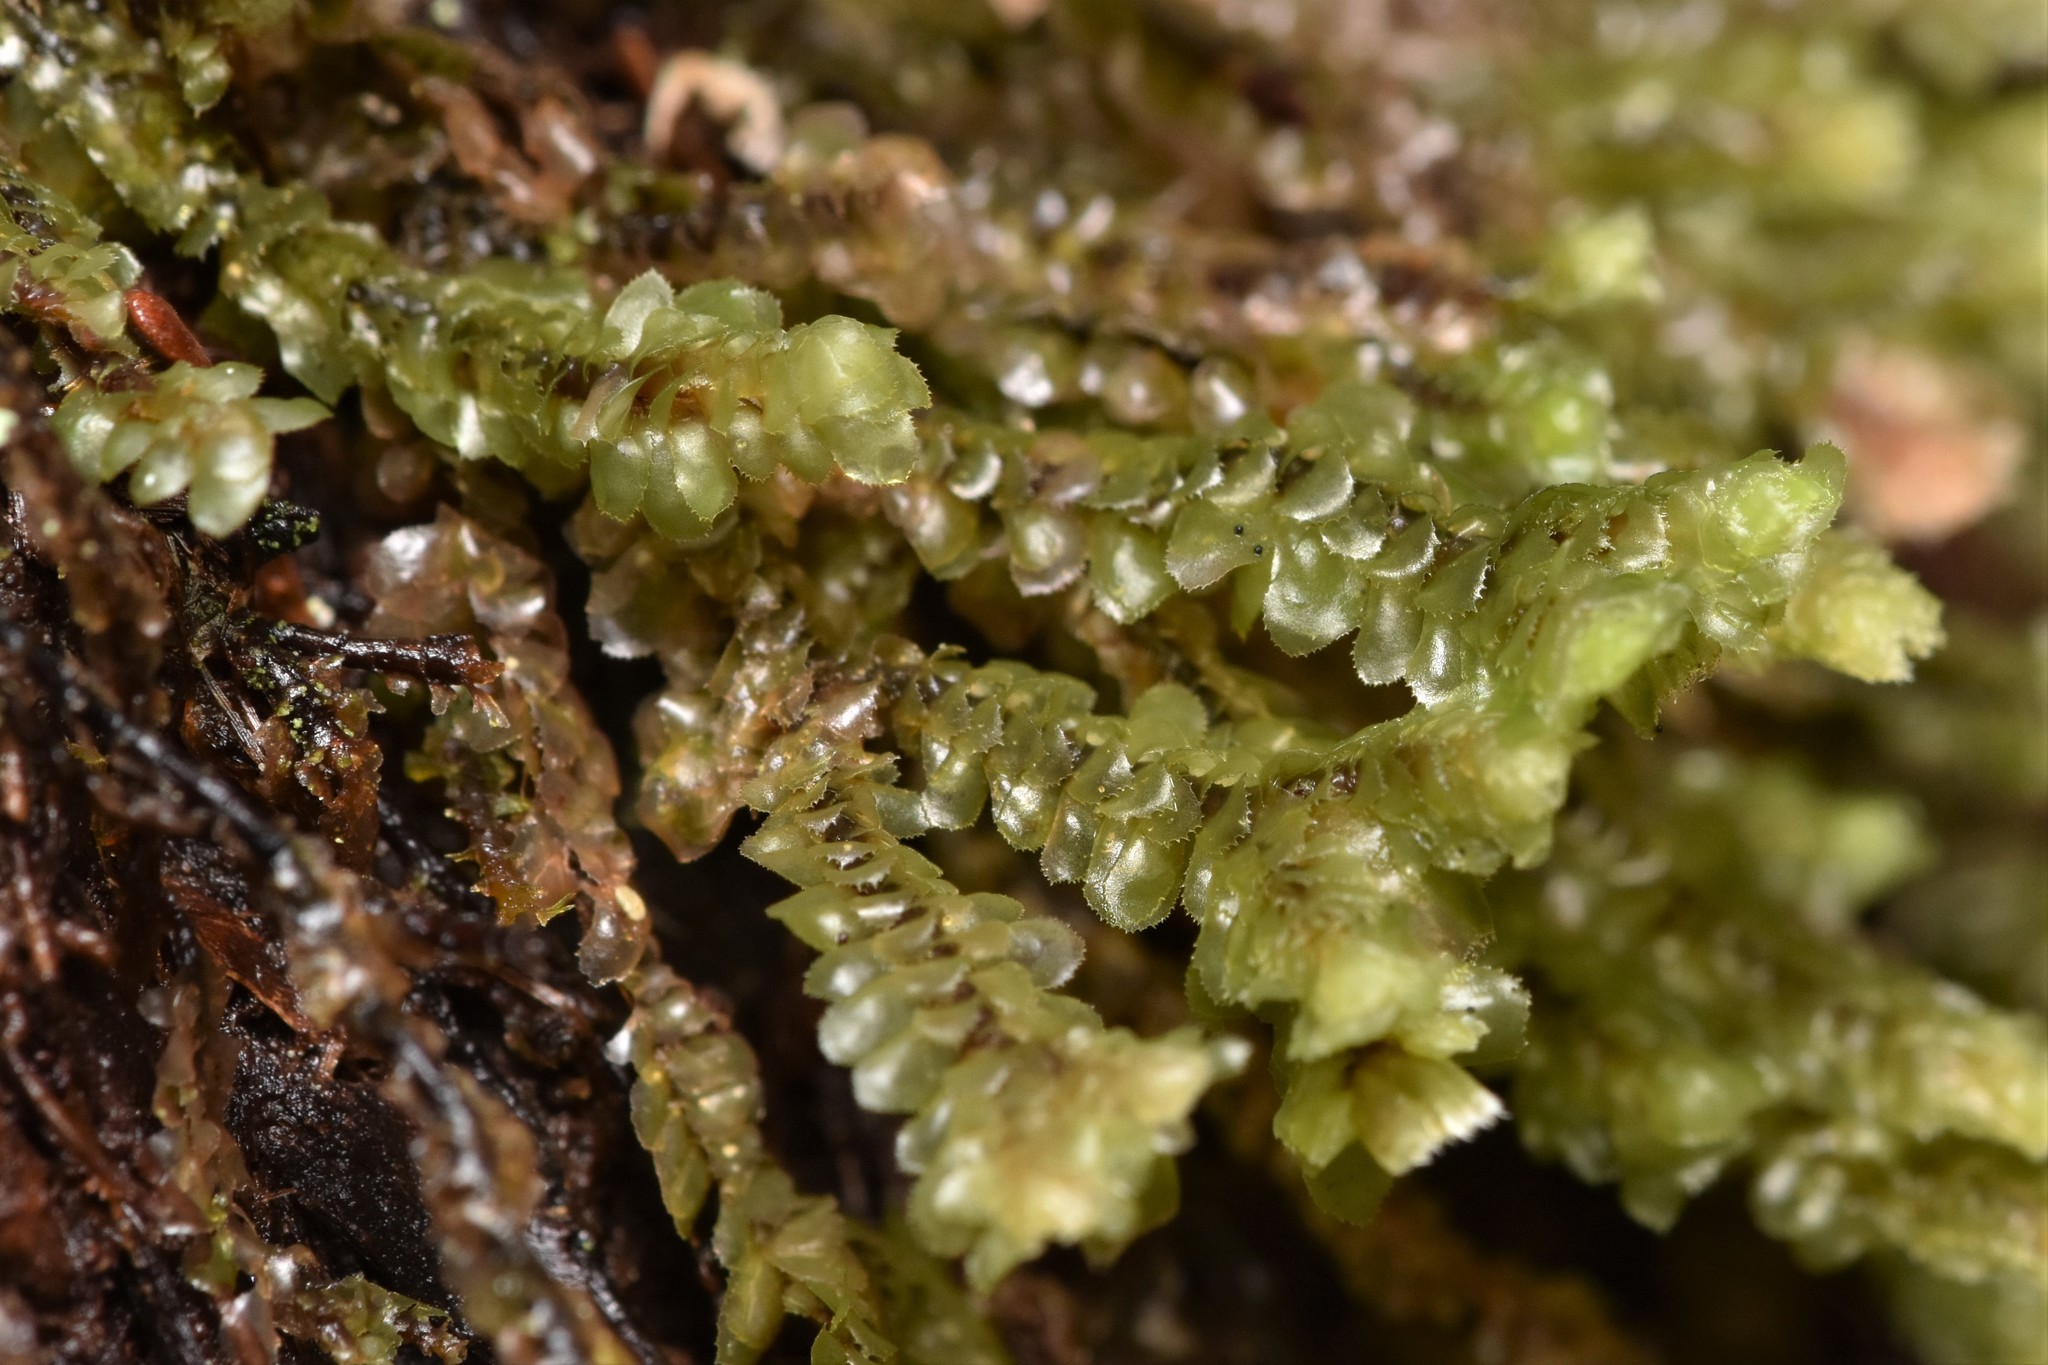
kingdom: Plantae
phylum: Marchantiophyta
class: Jungermanniopsida
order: Jungermanniales
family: Scapaniaceae
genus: Scapania
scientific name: Scapania bolanderi
